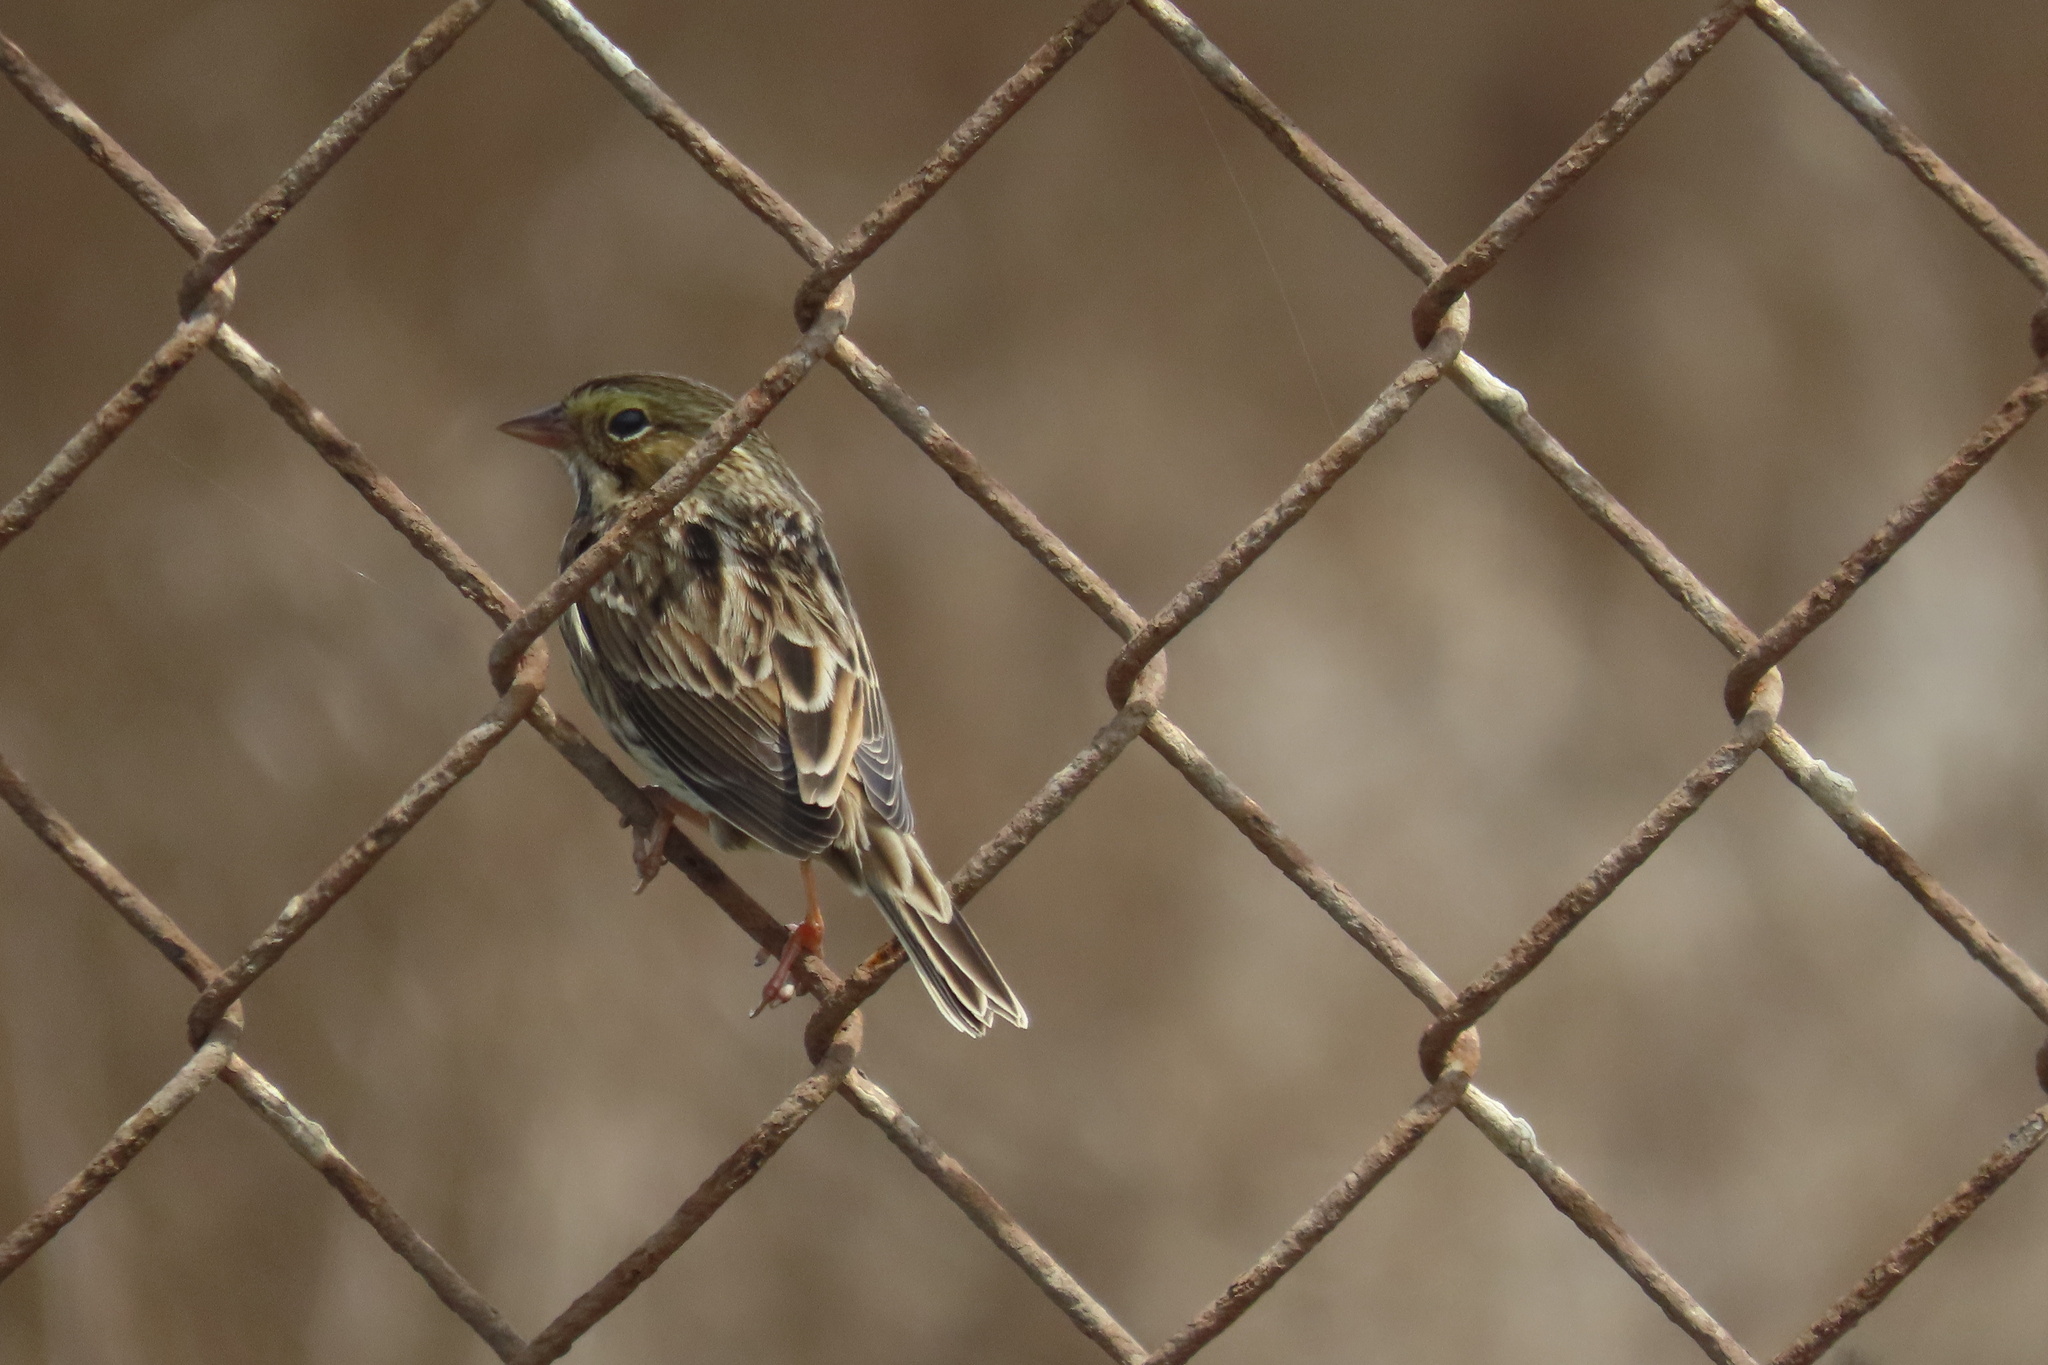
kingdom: Animalia
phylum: Chordata
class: Aves
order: Passeriformes
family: Passerellidae
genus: Passerculus
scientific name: Passerculus sandwichensis
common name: Savannah sparrow
